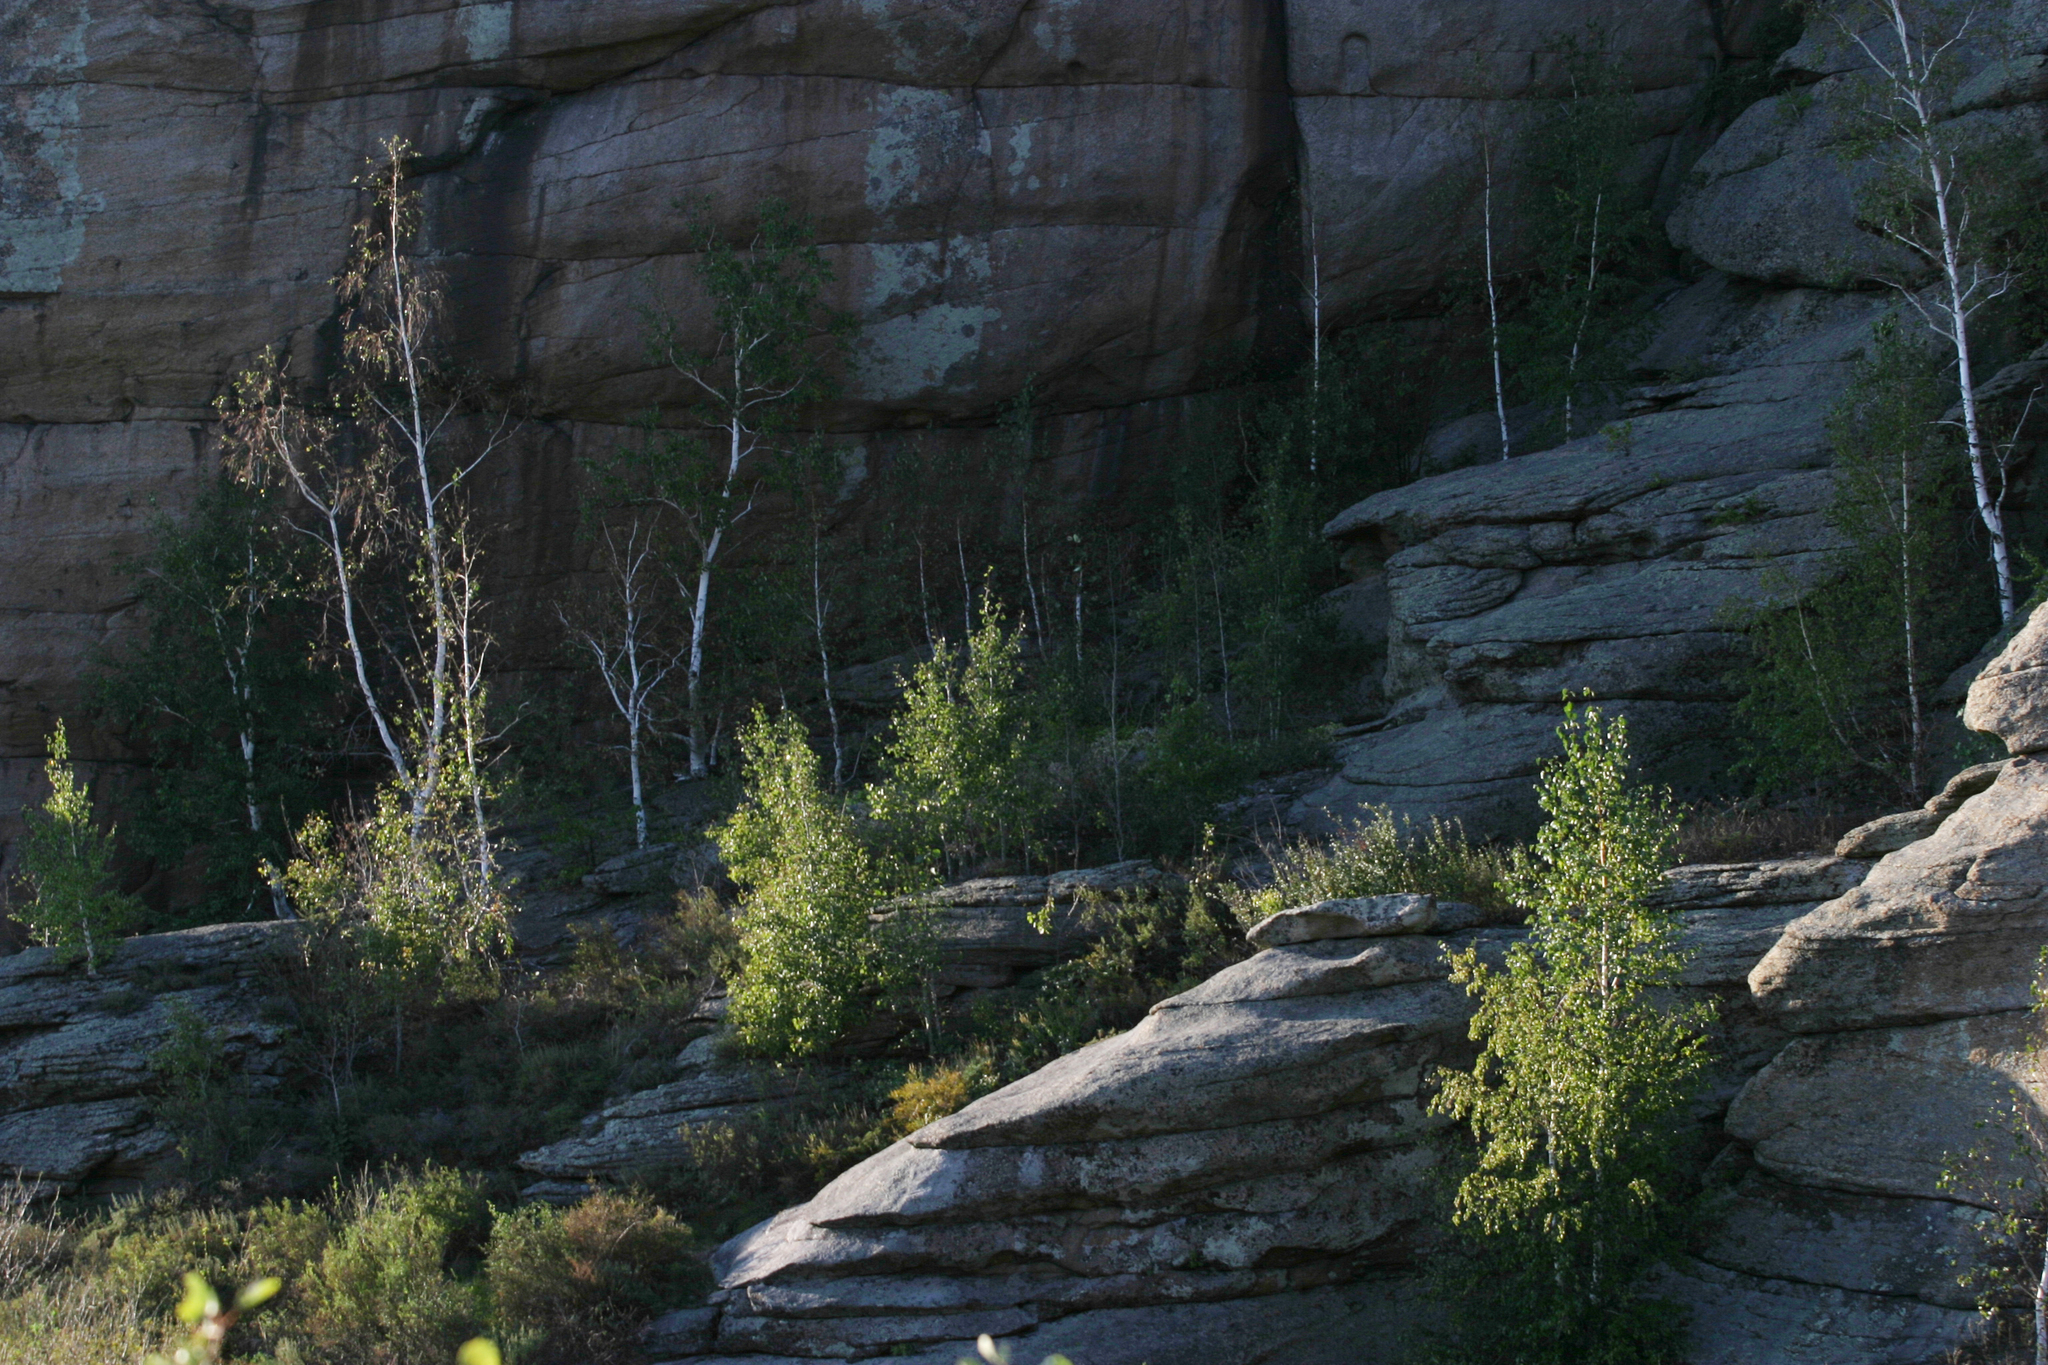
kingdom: Plantae
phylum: Tracheophyta
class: Magnoliopsida
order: Fagales
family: Betulaceae
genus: Betula
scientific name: Betula pendula
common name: Silver birch
